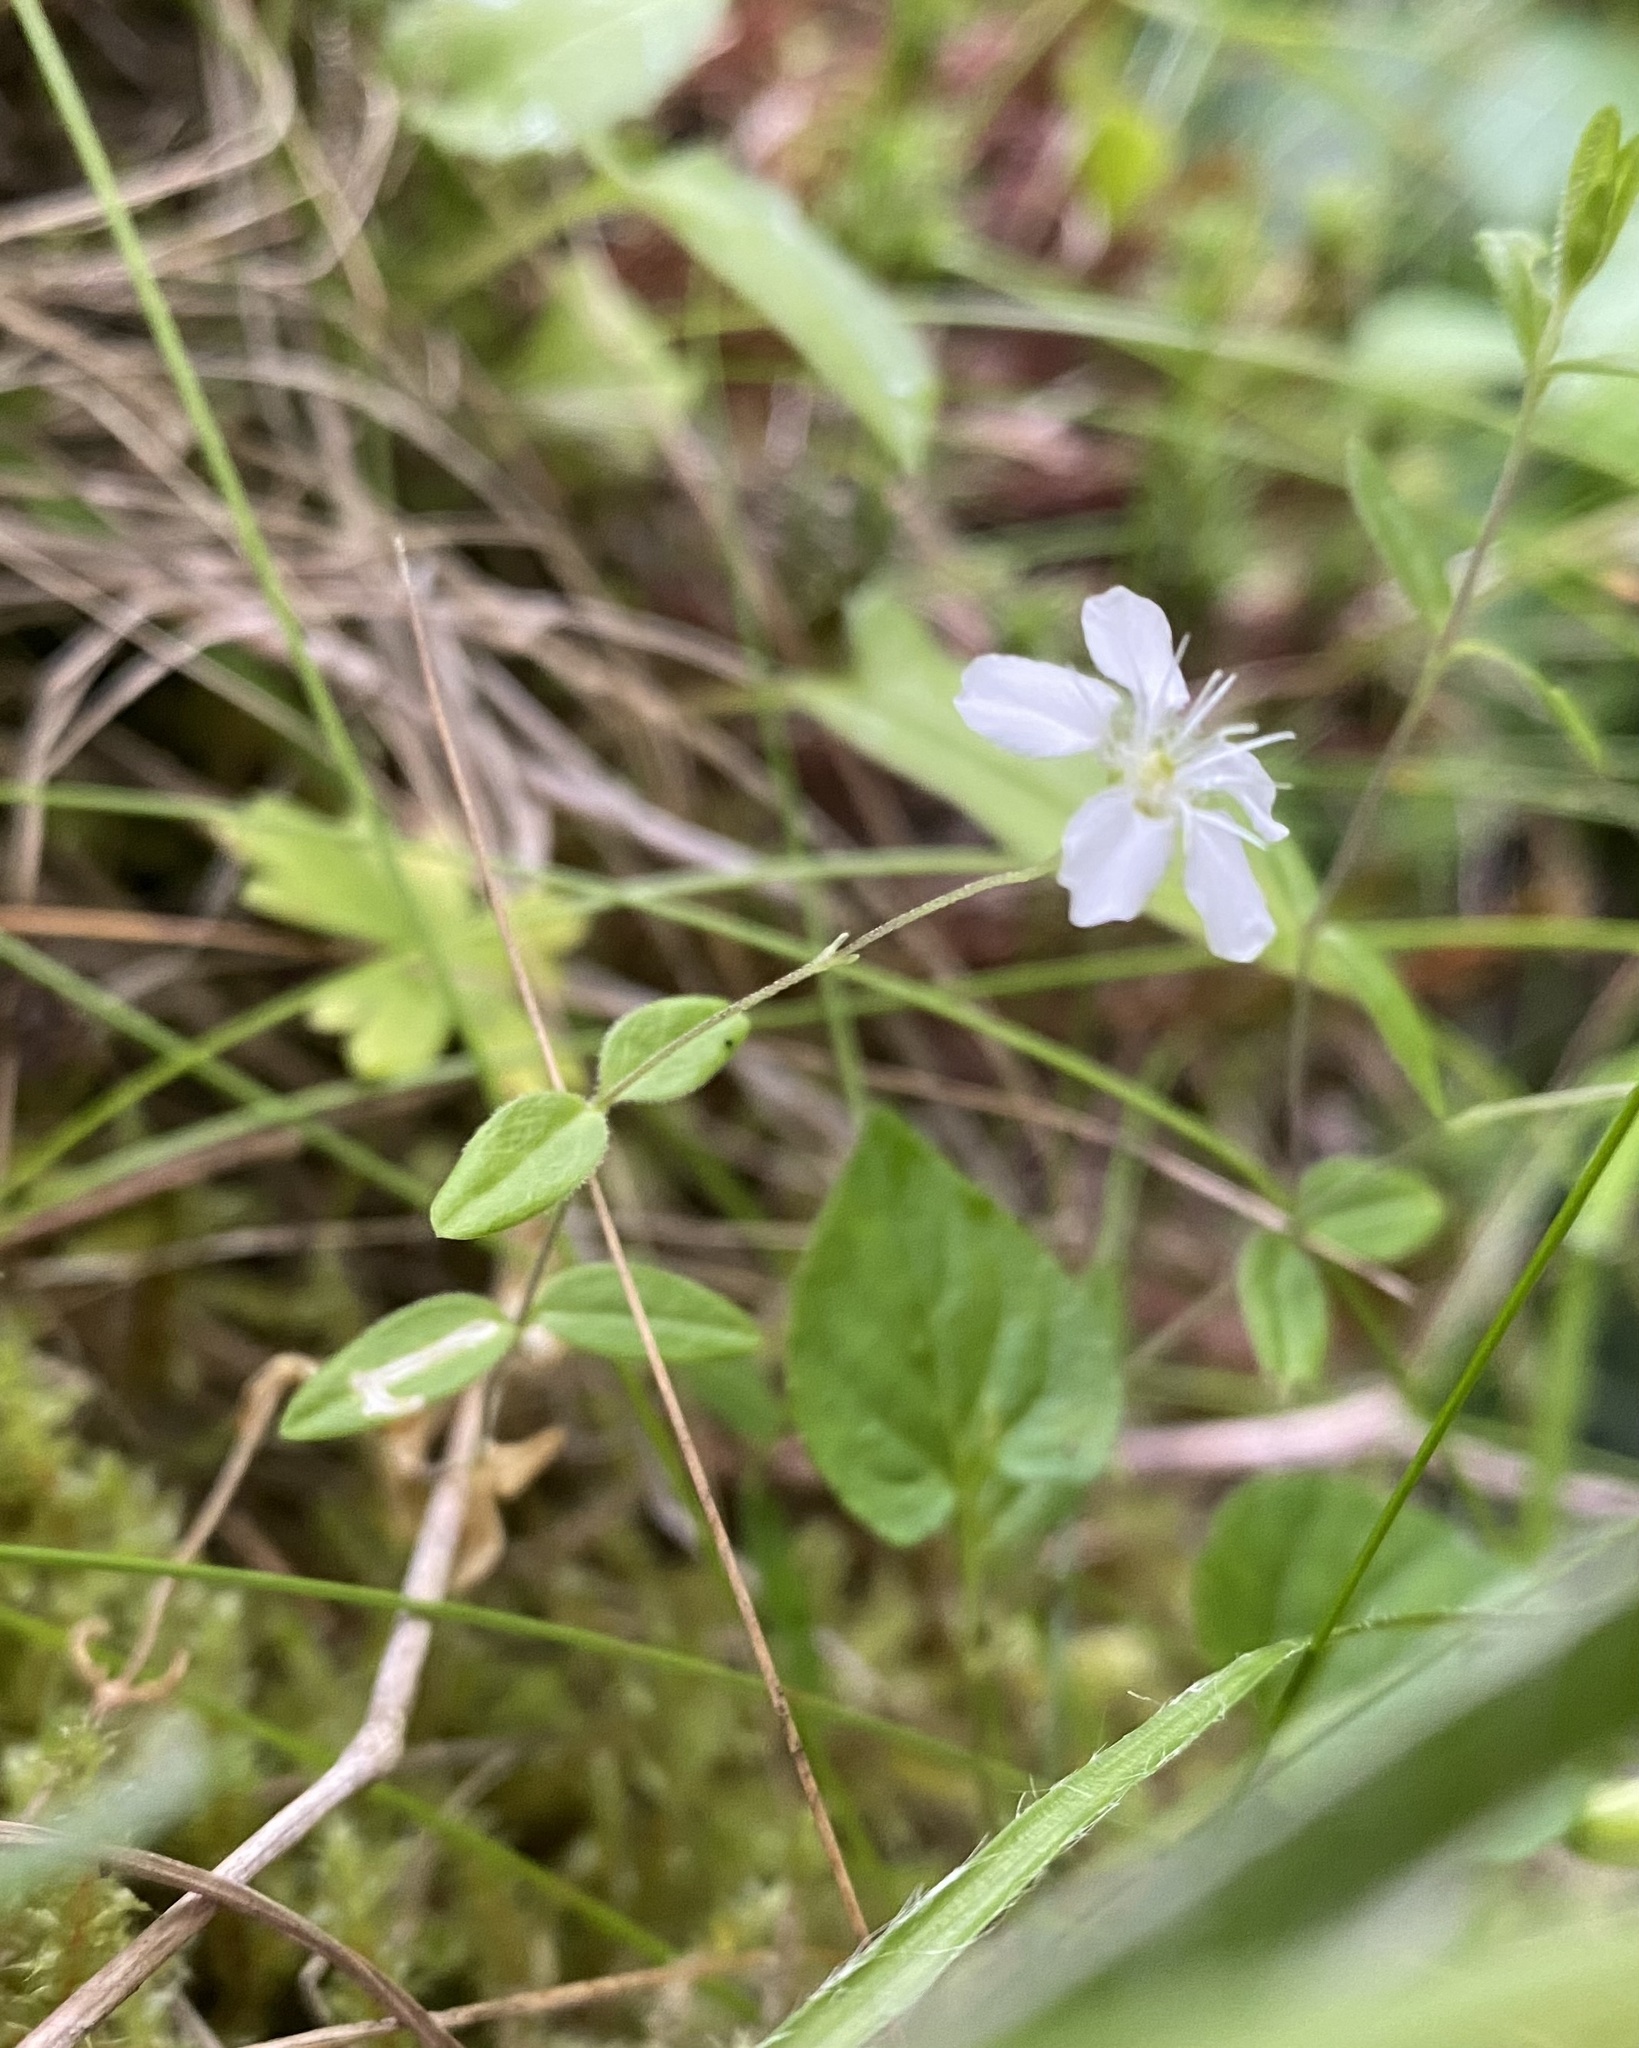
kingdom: Plantae
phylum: Tracheophyta
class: Magnoliopsida
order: Caryophyllales
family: Caryophyllaceae
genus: Moehringia
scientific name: Moehringia lateriflora
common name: Blunt-leaved sandwort
